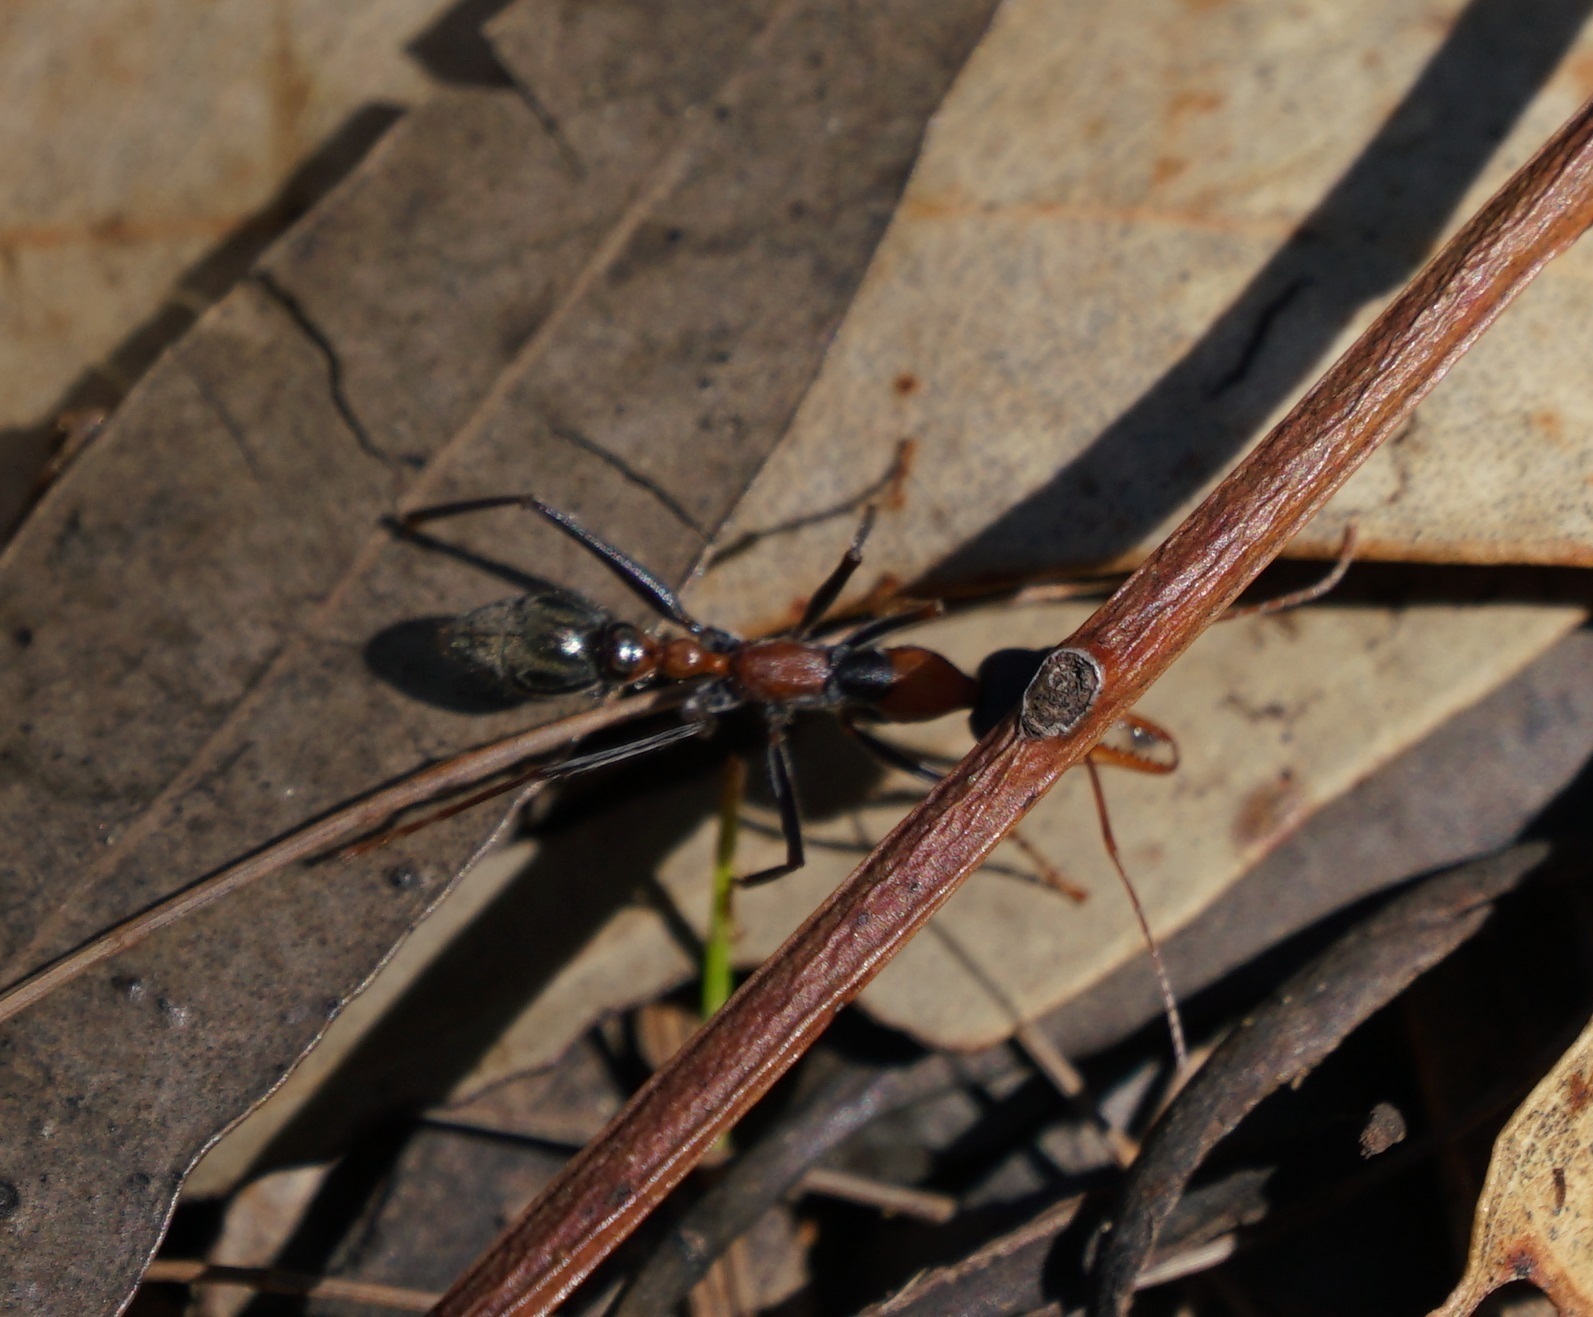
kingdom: Animalia
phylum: Arthropoda
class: Insecta
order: Hymenoptera
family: Formicidae
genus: Myrmecia
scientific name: Myrmecia nigrocincta
